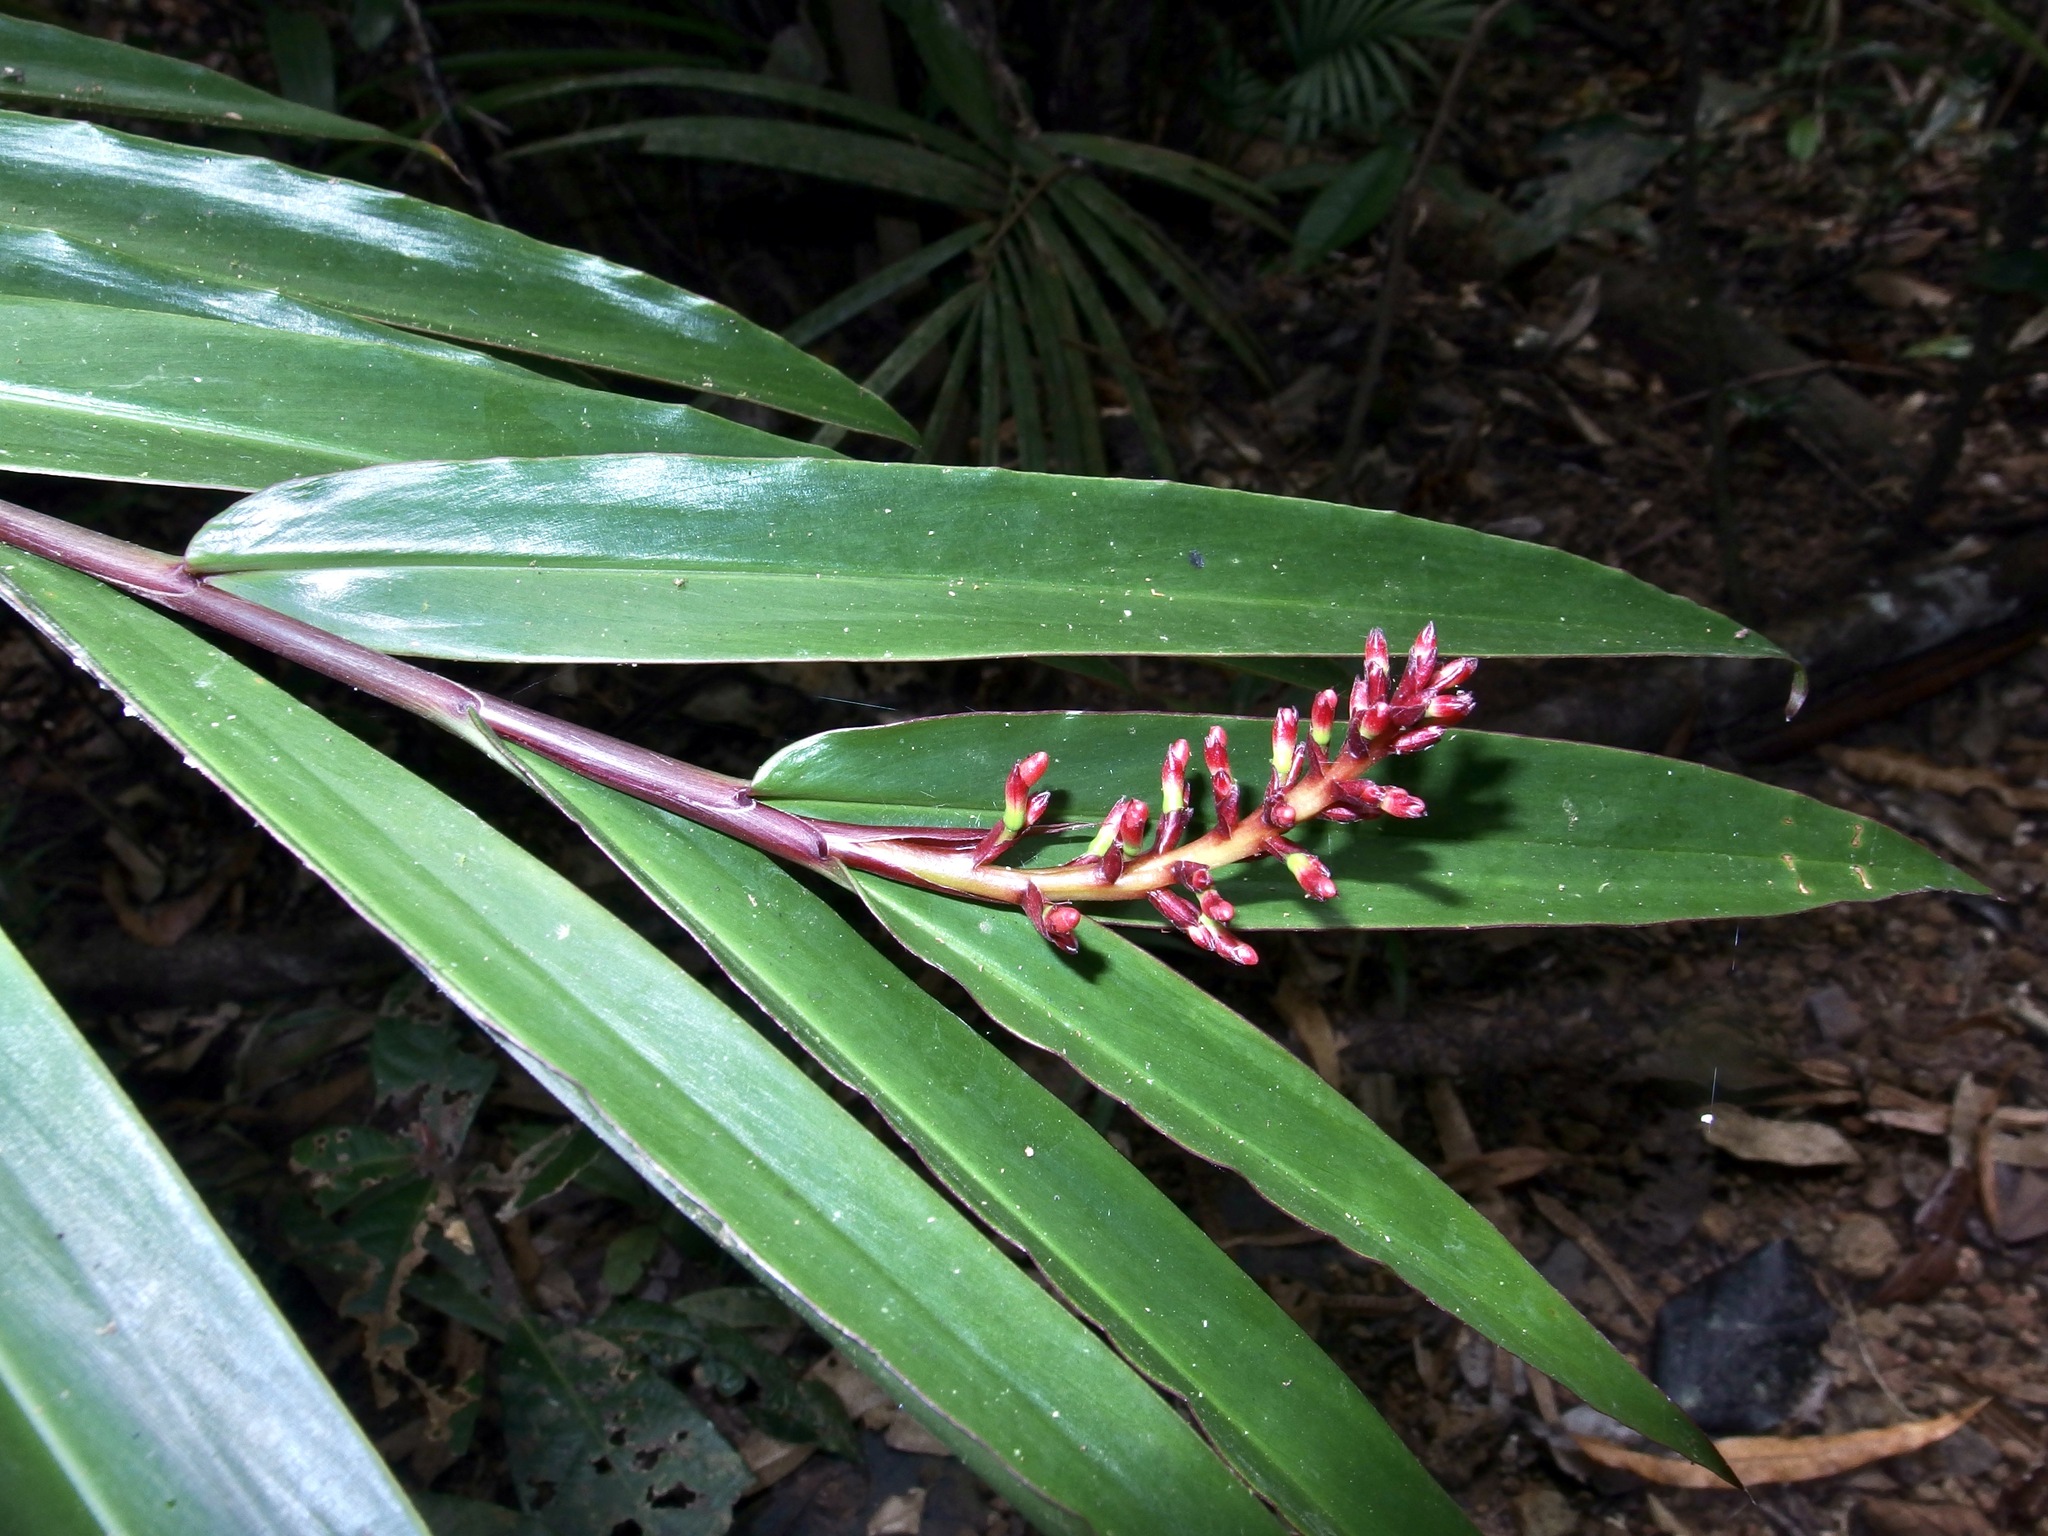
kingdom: Plantae
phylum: Tracheophyta
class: Liliopsida
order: Zingiberales
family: Zingiberaceae
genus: Alpinia
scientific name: Alpinia modesta
